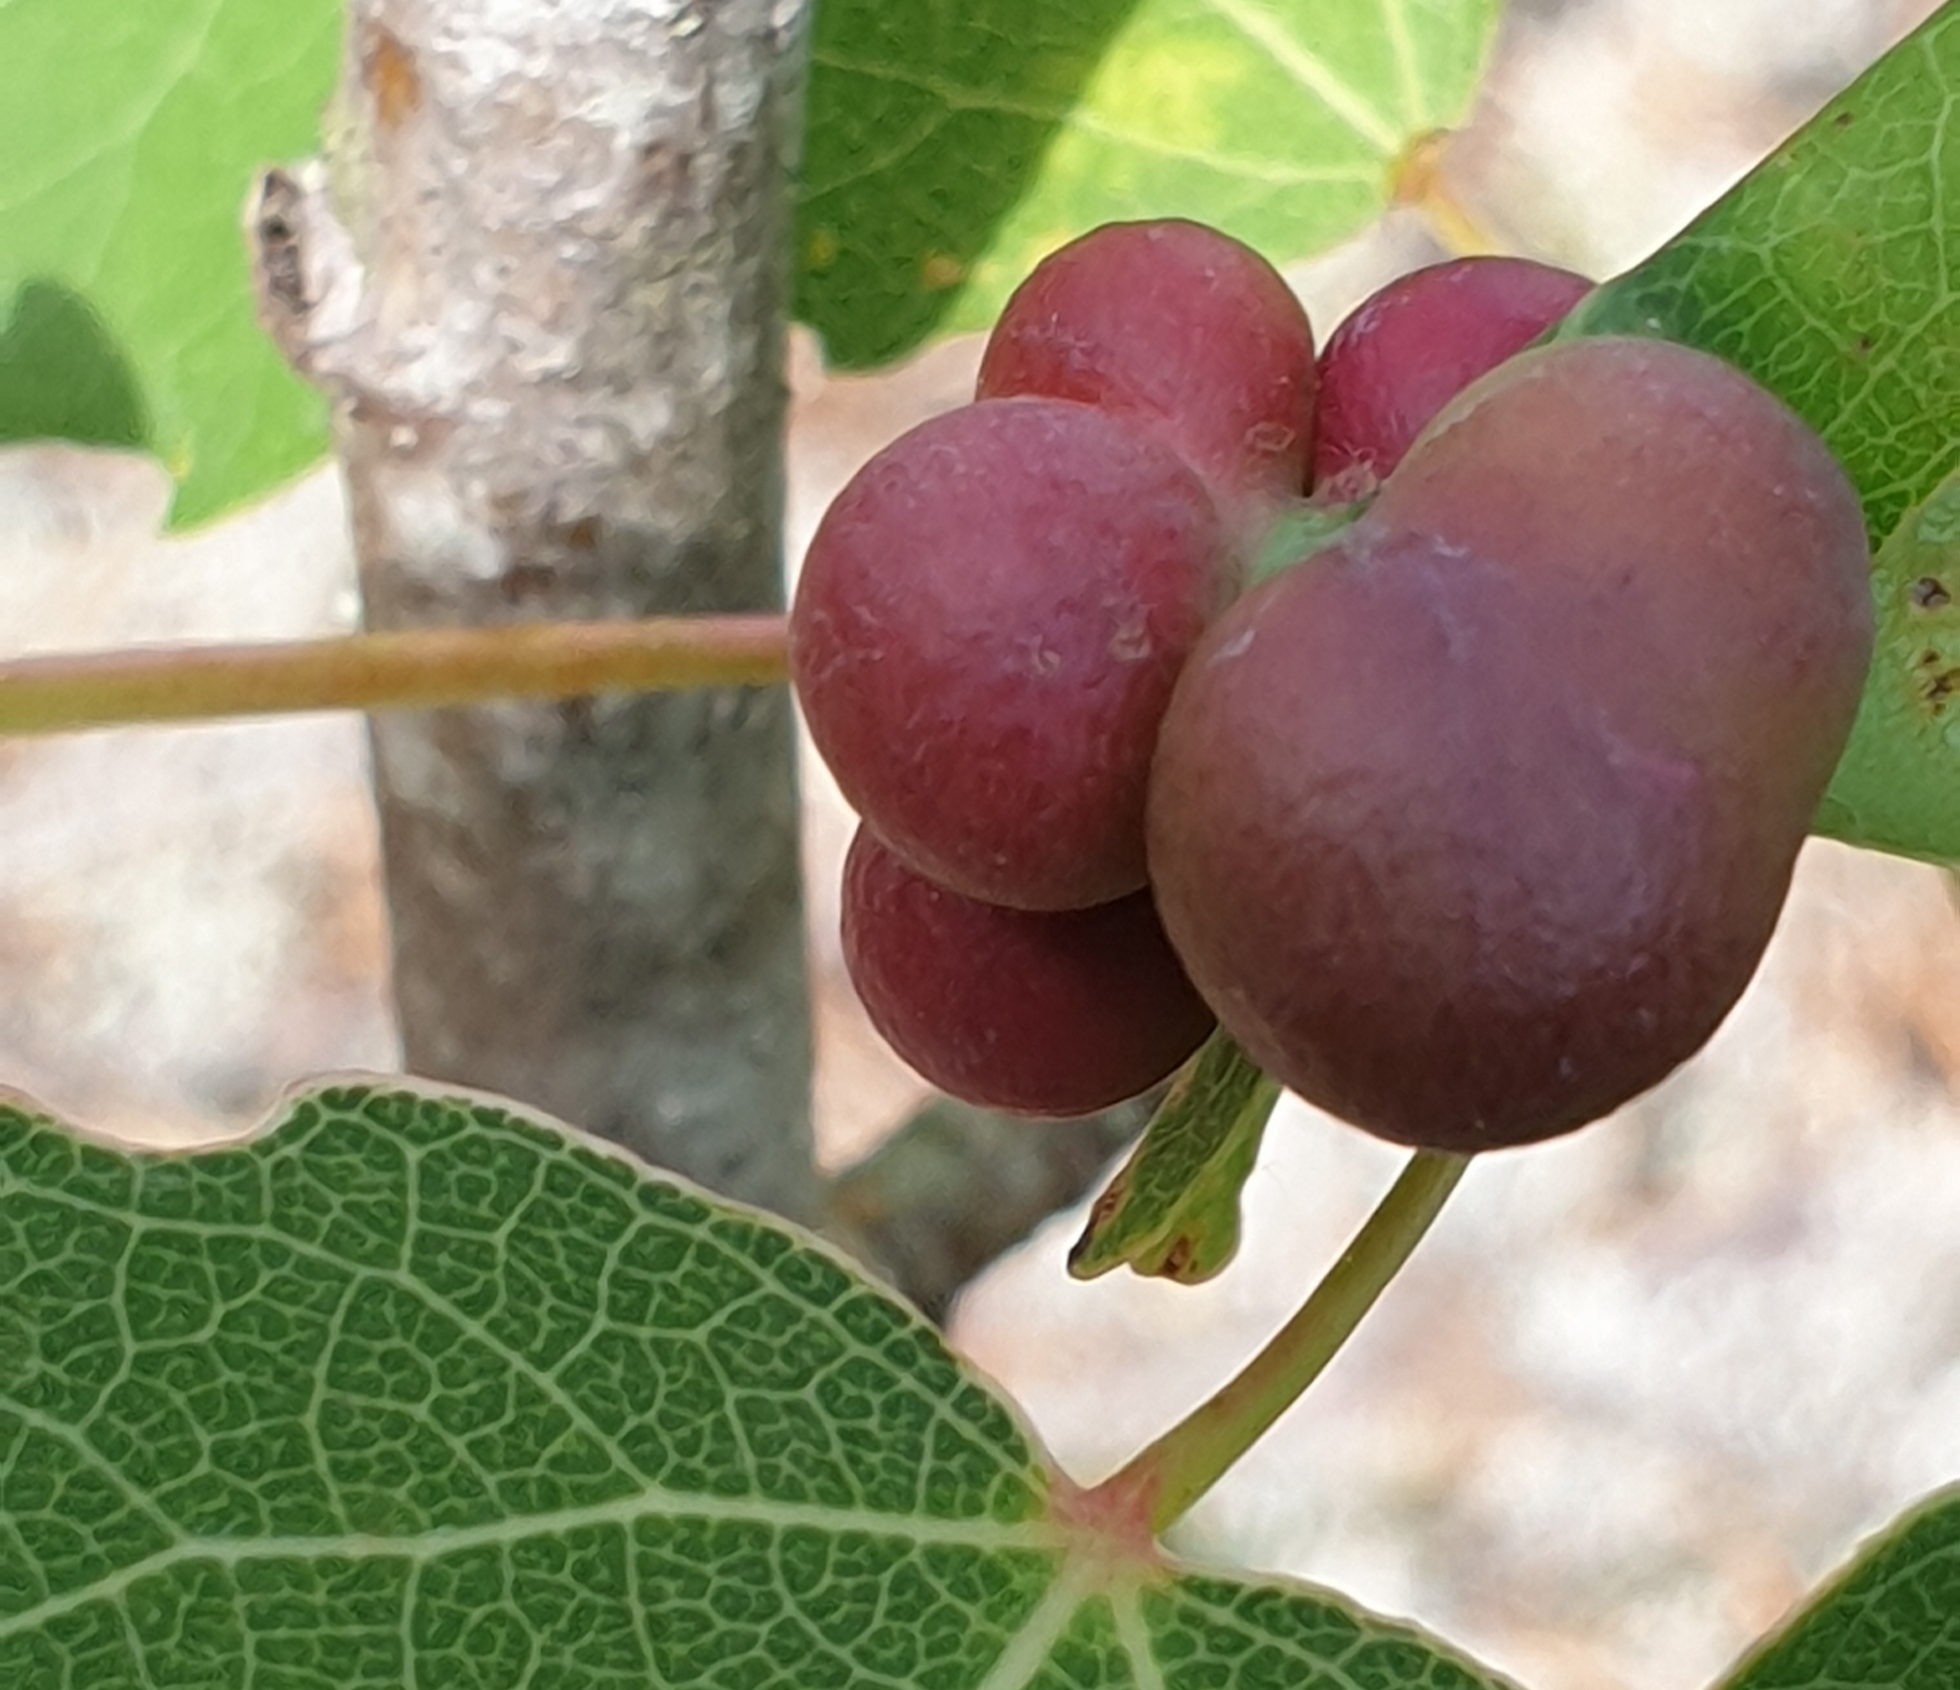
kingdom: Animalia
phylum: Arthropoda
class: Insecta
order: Diptera
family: Cecidomyiidae
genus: Harmandiola
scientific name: Harmandiola tremulae
